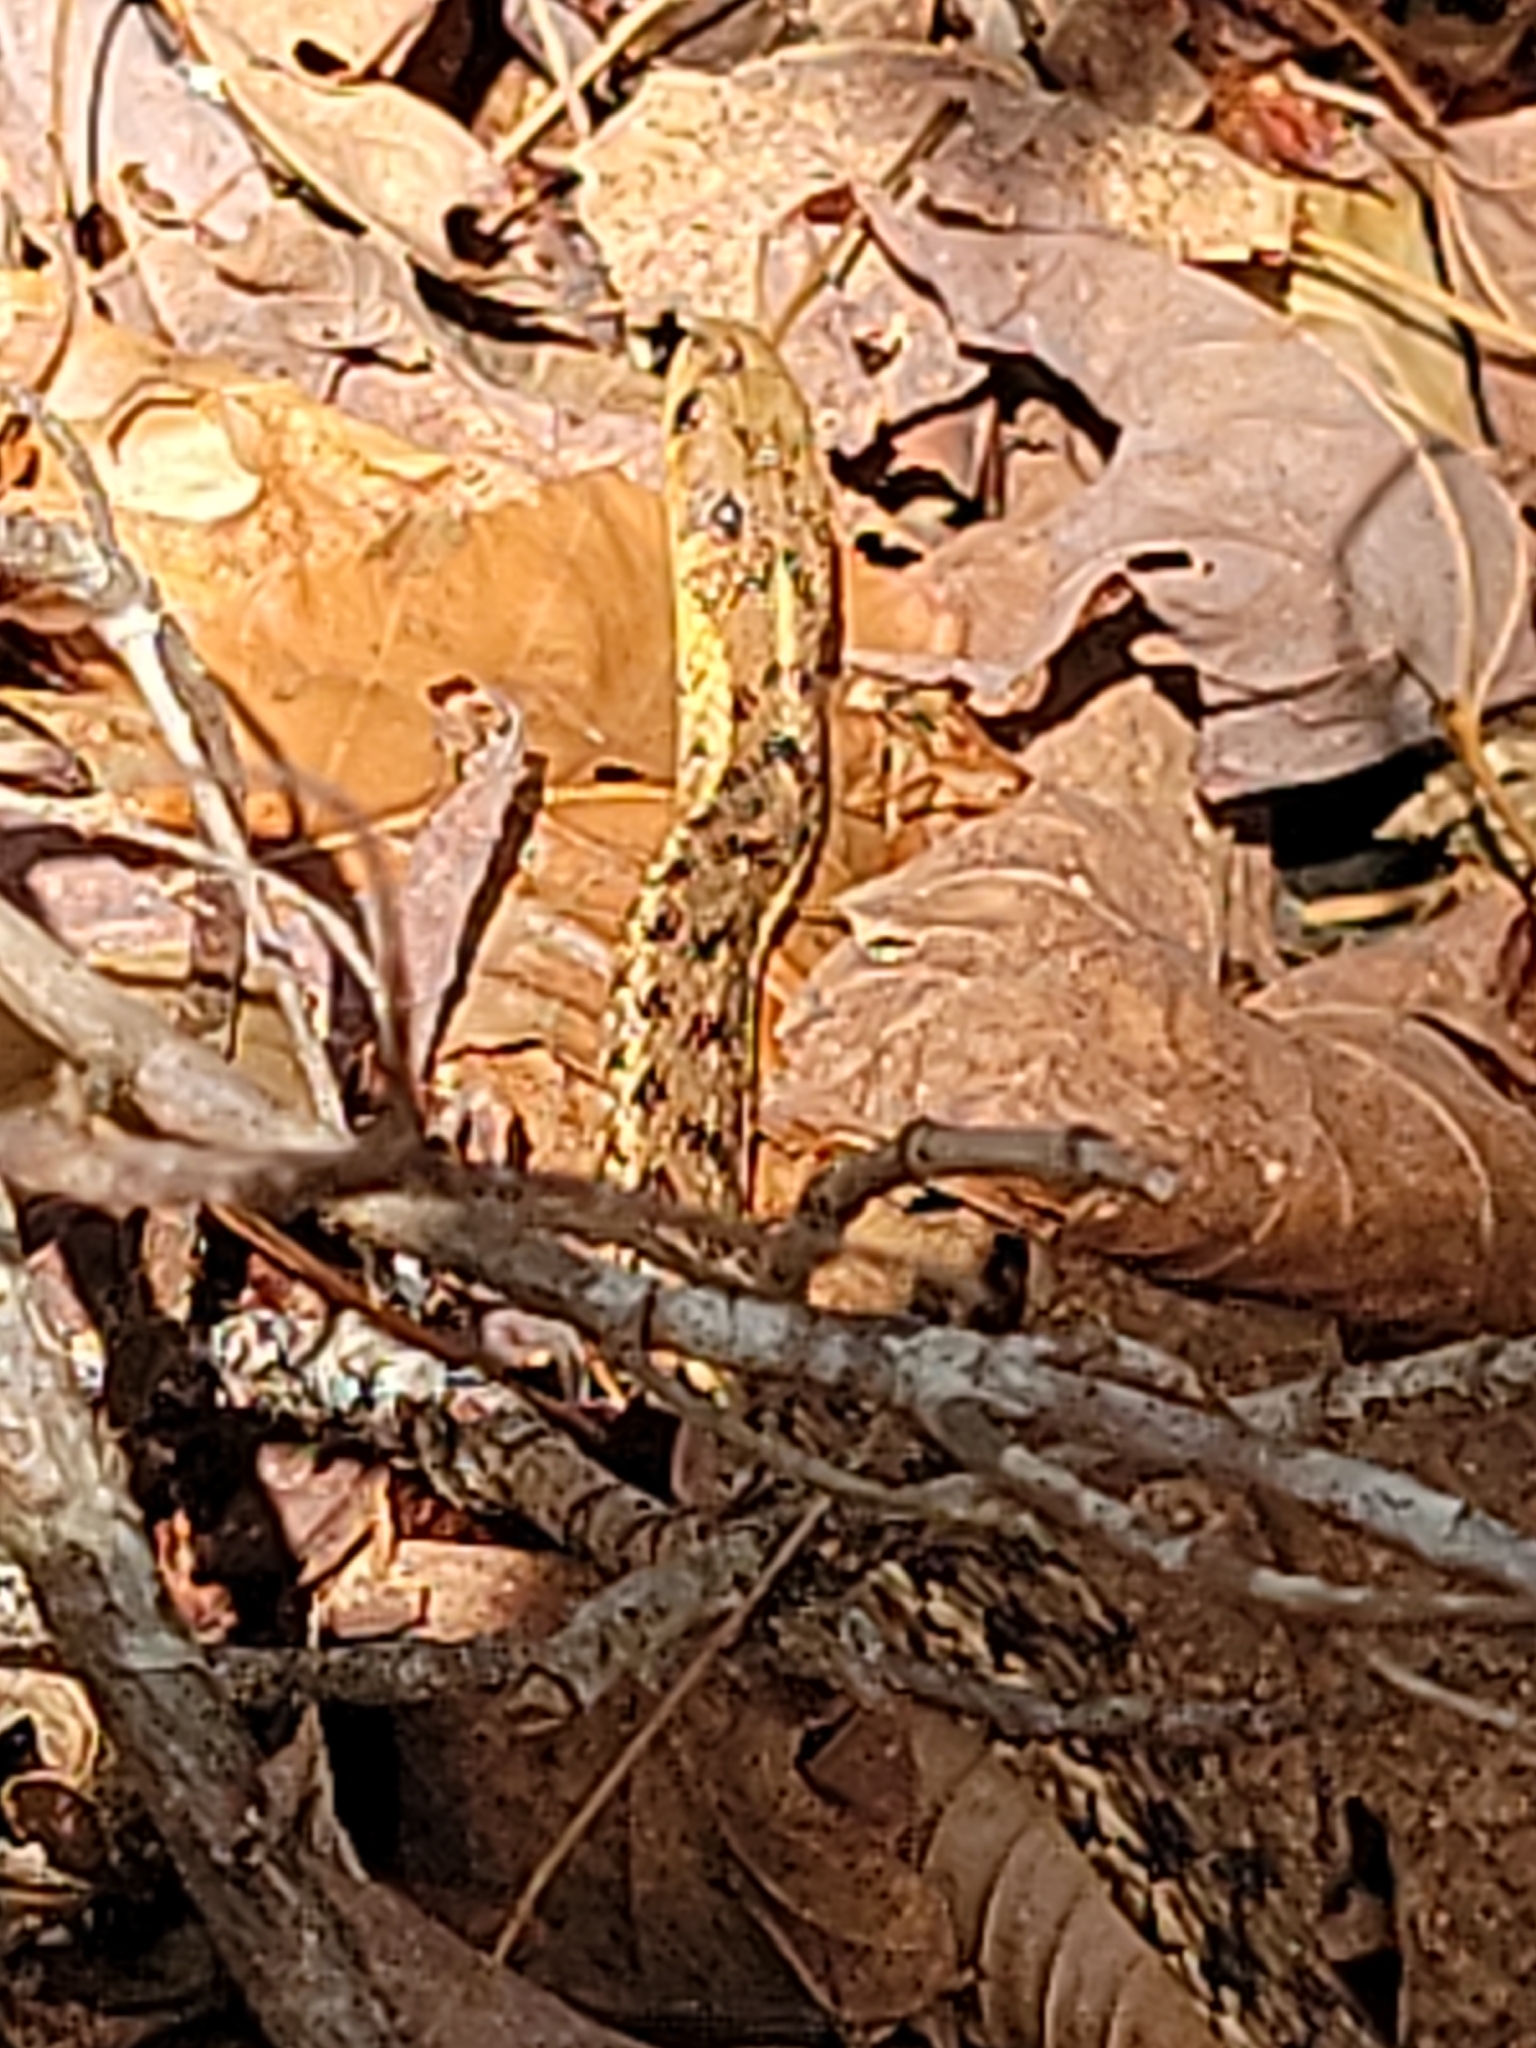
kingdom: Animalia
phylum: Chordata
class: Squamata
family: Colubridae
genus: Thamnophis
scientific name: Thamnophis sirtalis
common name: Common garter snake
